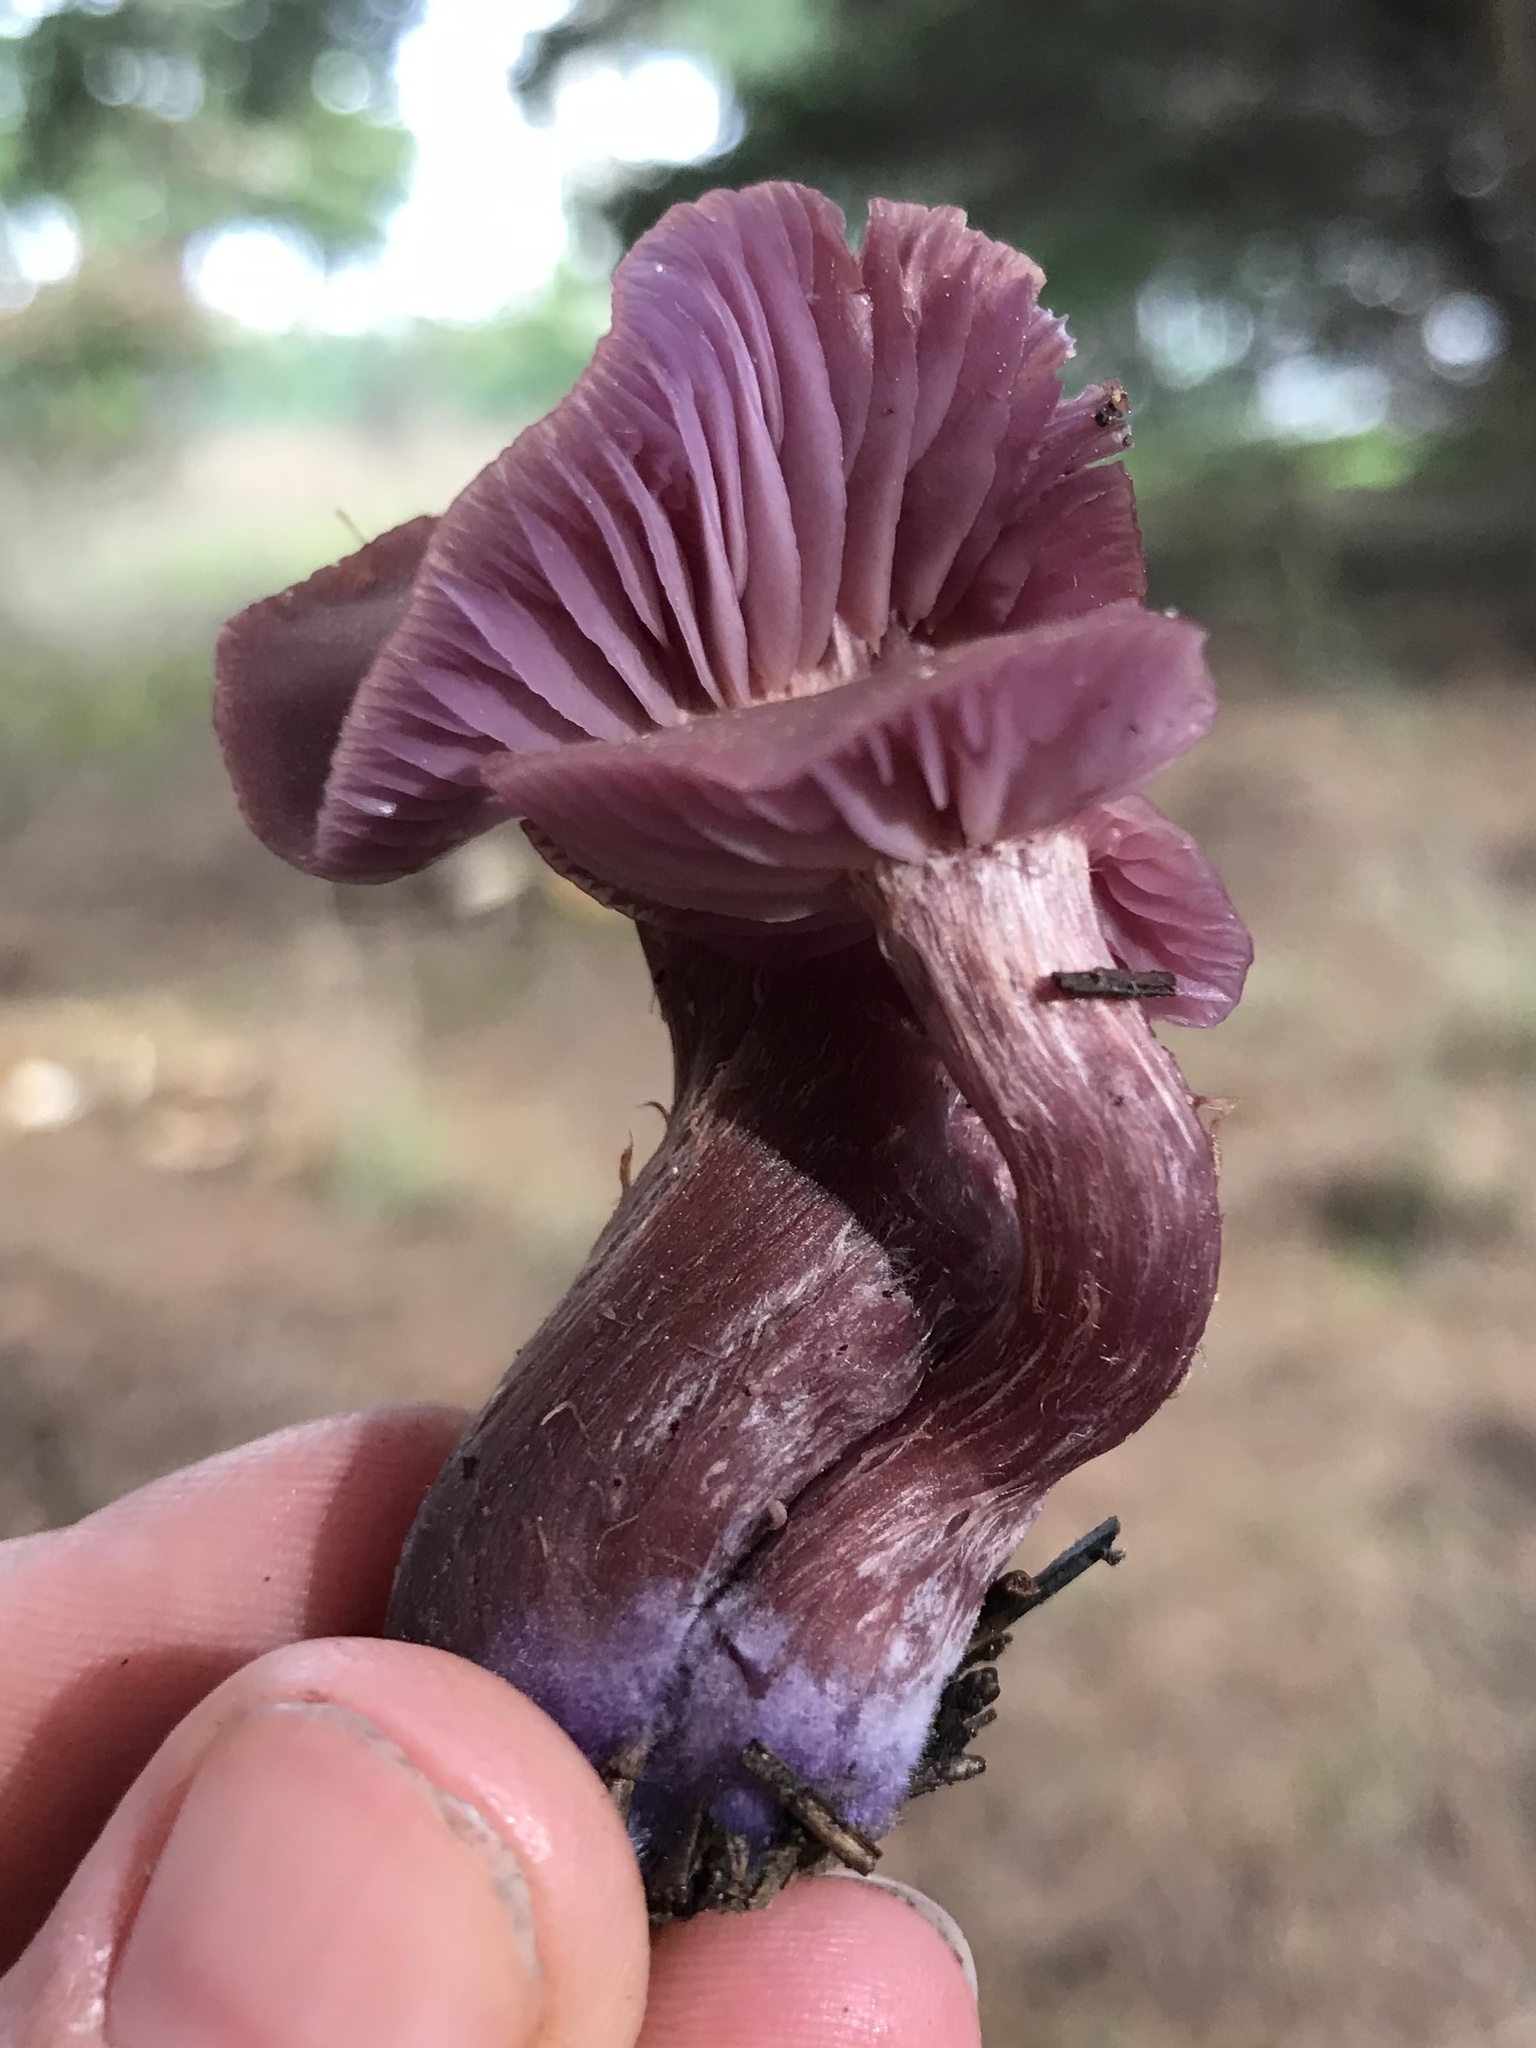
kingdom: Fungi
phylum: Basidiomycota
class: Agaricomycetes
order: Agaricales
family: Hydnangiaceae
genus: Laccaria
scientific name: Laccaria amethysteo-occidentalis
